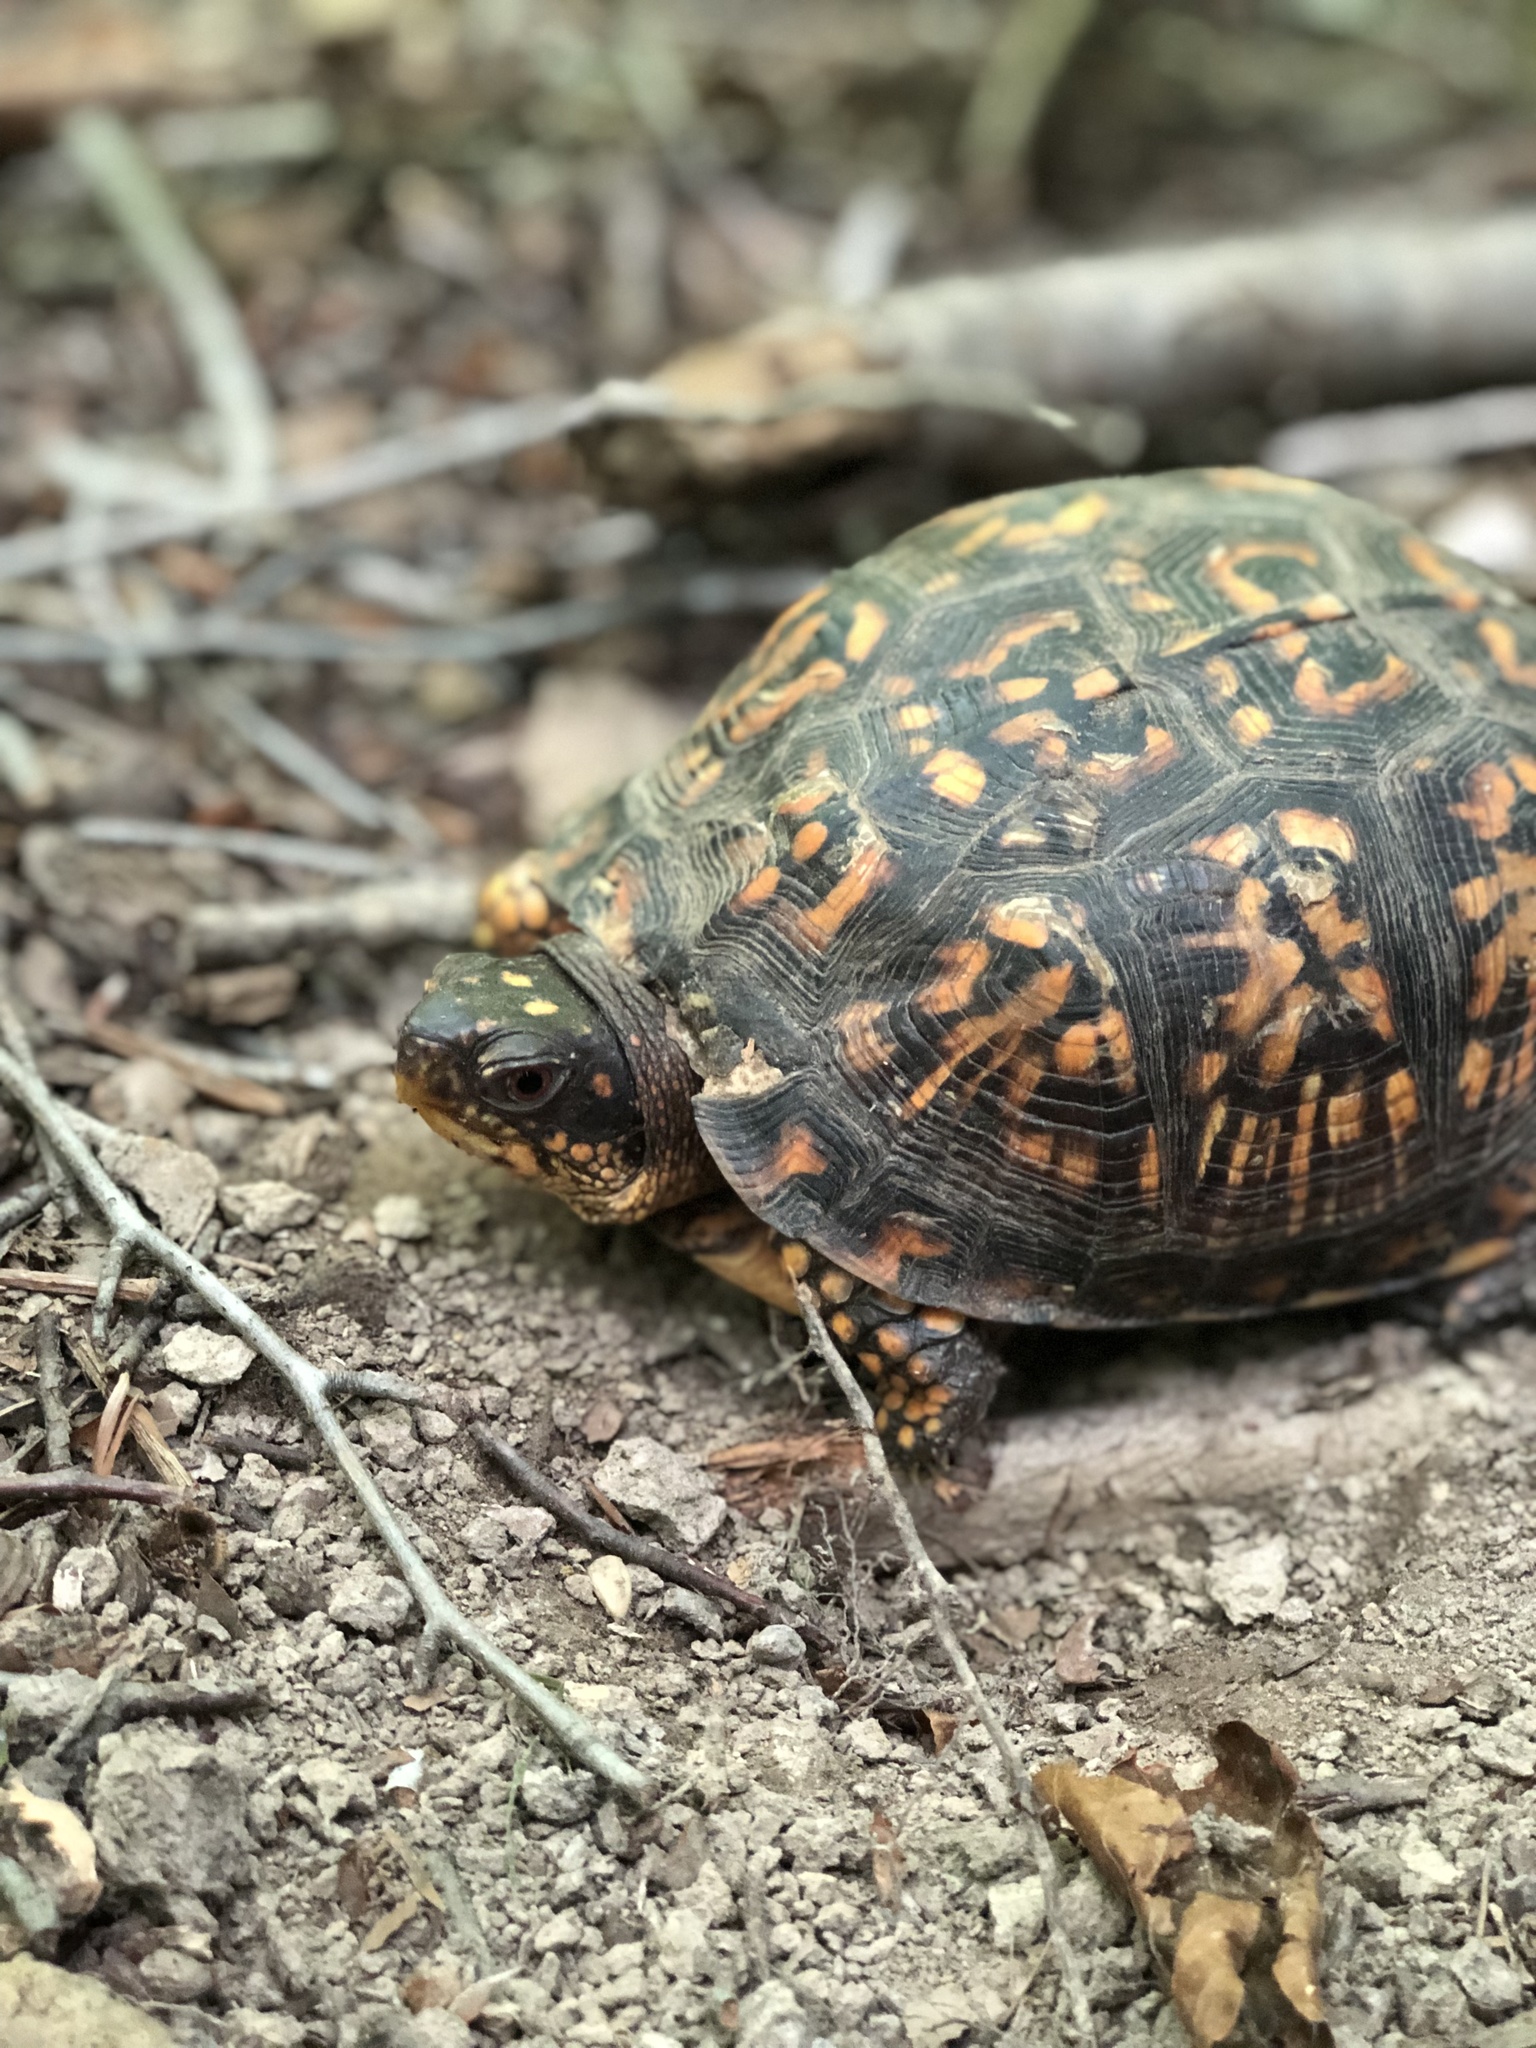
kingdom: Animalia
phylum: Chordata
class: Testudines
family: Emydidae
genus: Terrapene
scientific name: Terrapene carolina
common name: Common box turtle
